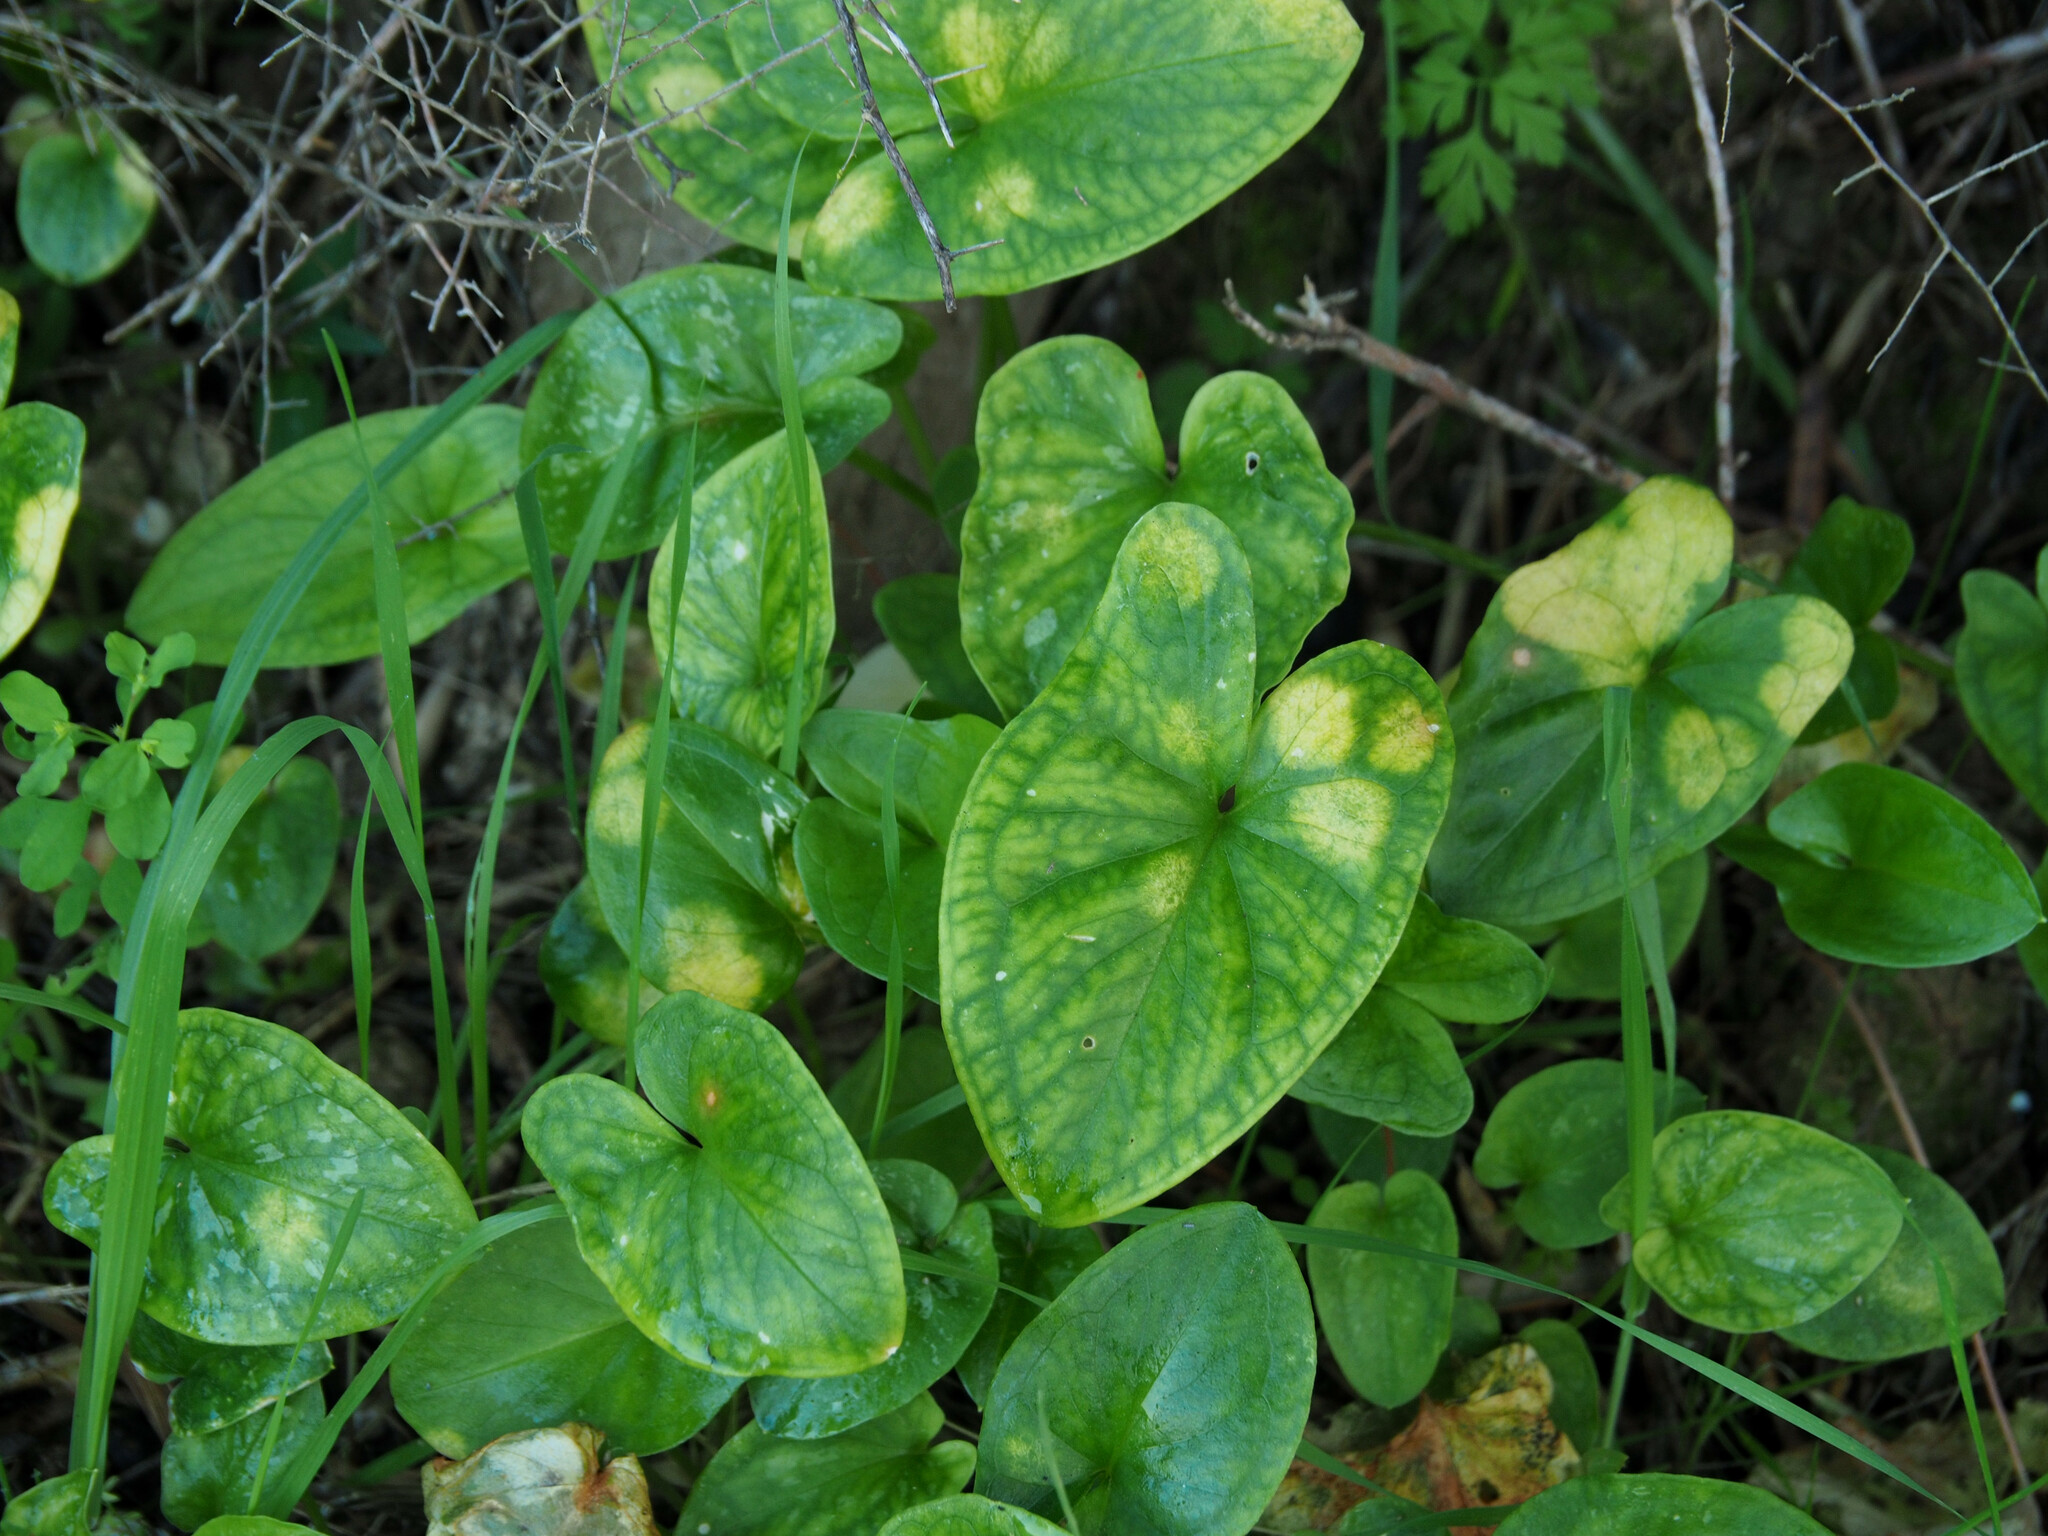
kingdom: Chromista
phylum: Ochrophyta
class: Xanthophyceae
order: Phyllosiphonales
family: Phyllosiphonaceae
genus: Phyllosiphon
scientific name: Phyllosiphon arisari
